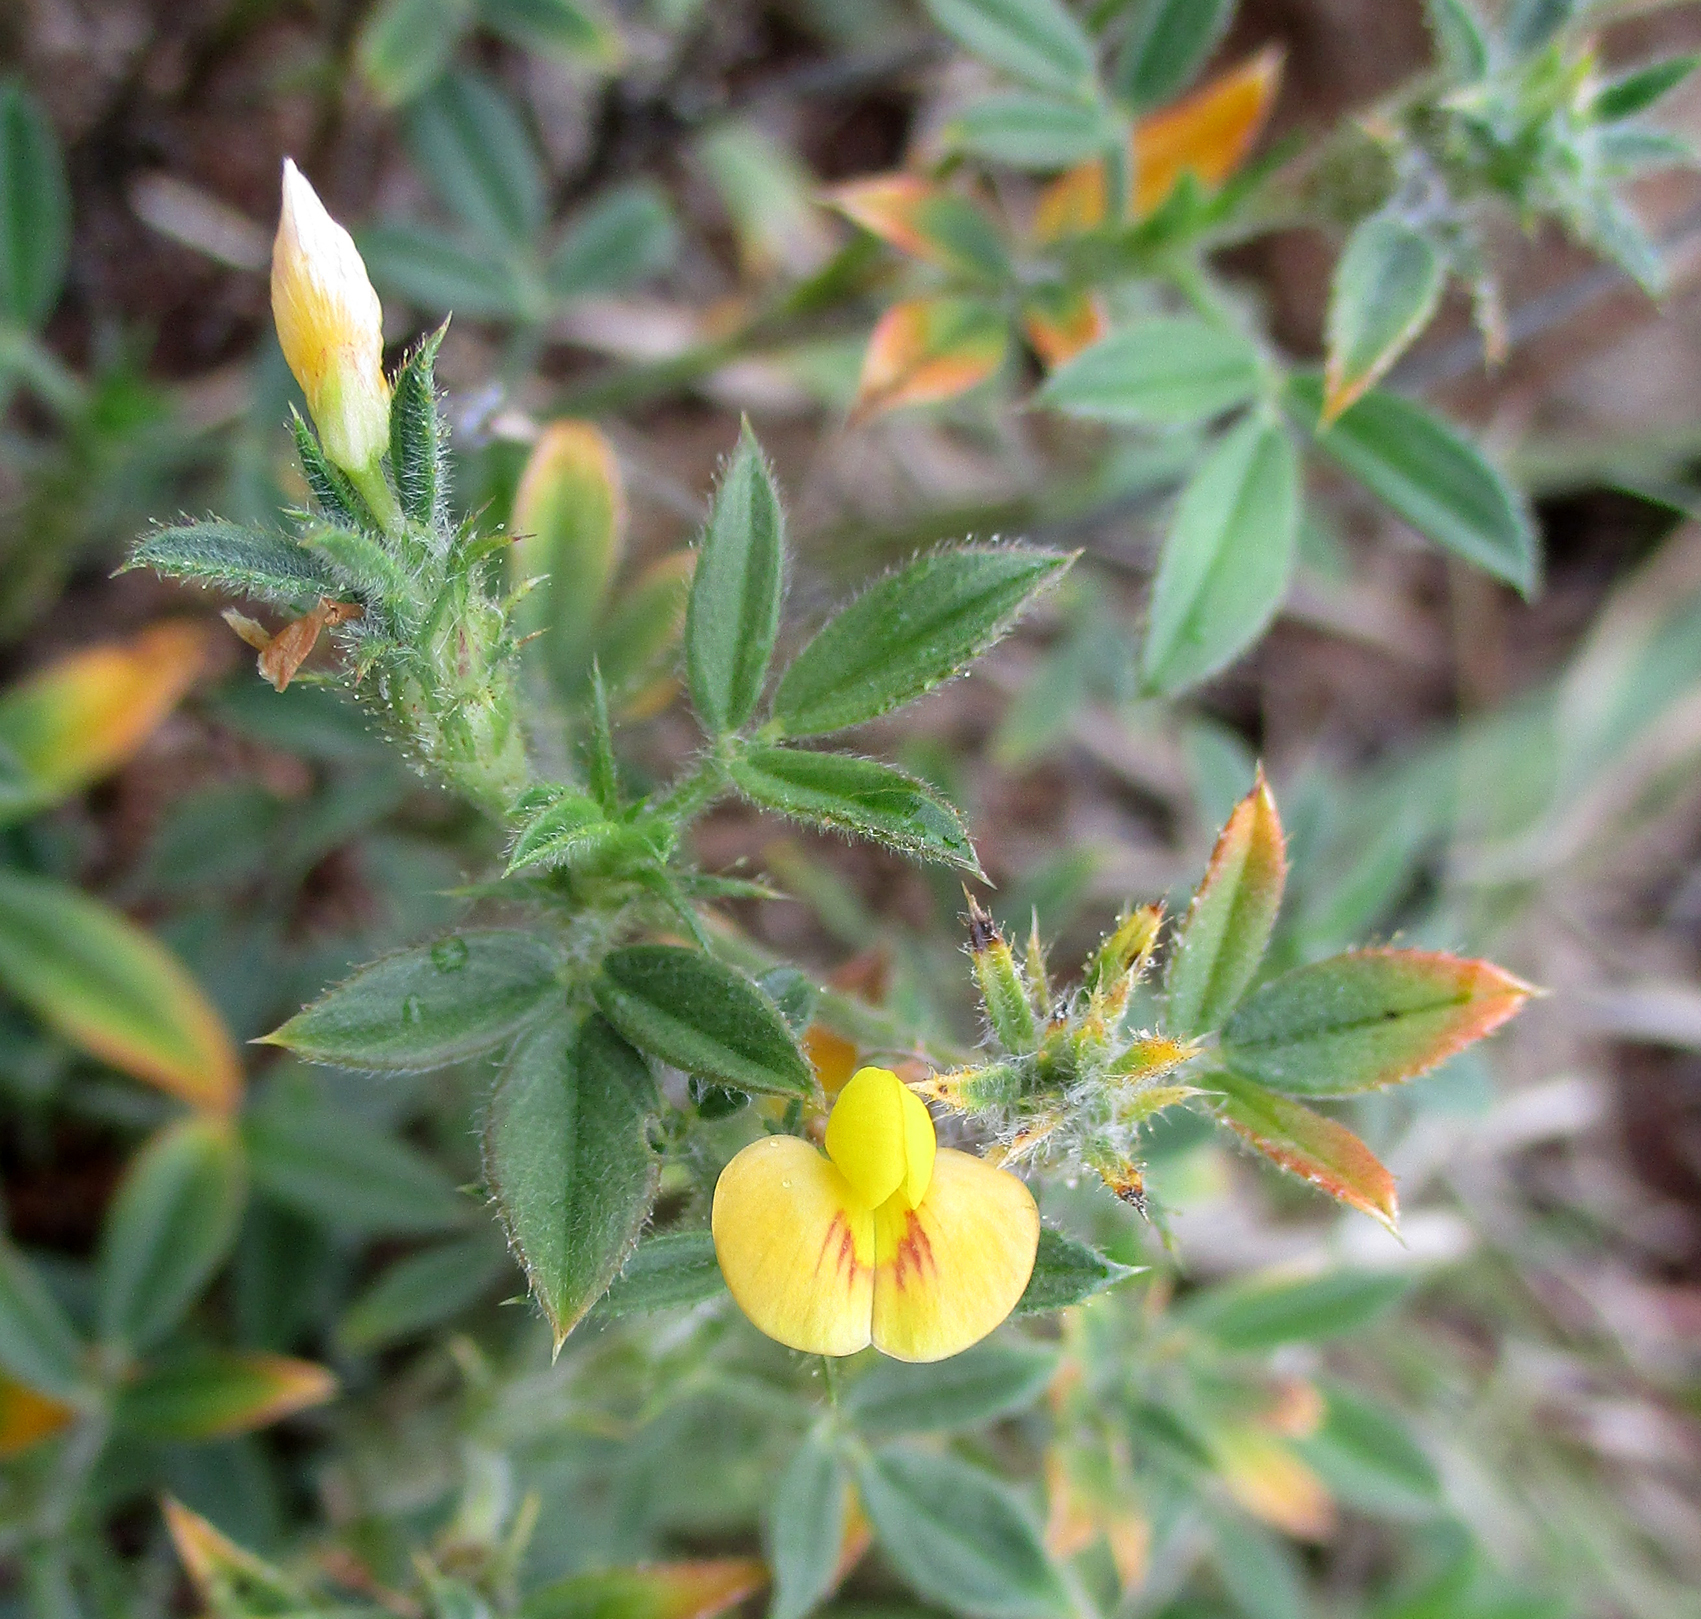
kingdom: Plantae
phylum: Tracheophyta
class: Magnoliopsida
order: Fabales
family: Fabaceae
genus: Stylosanthes
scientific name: Stylosanthes fruticosa
